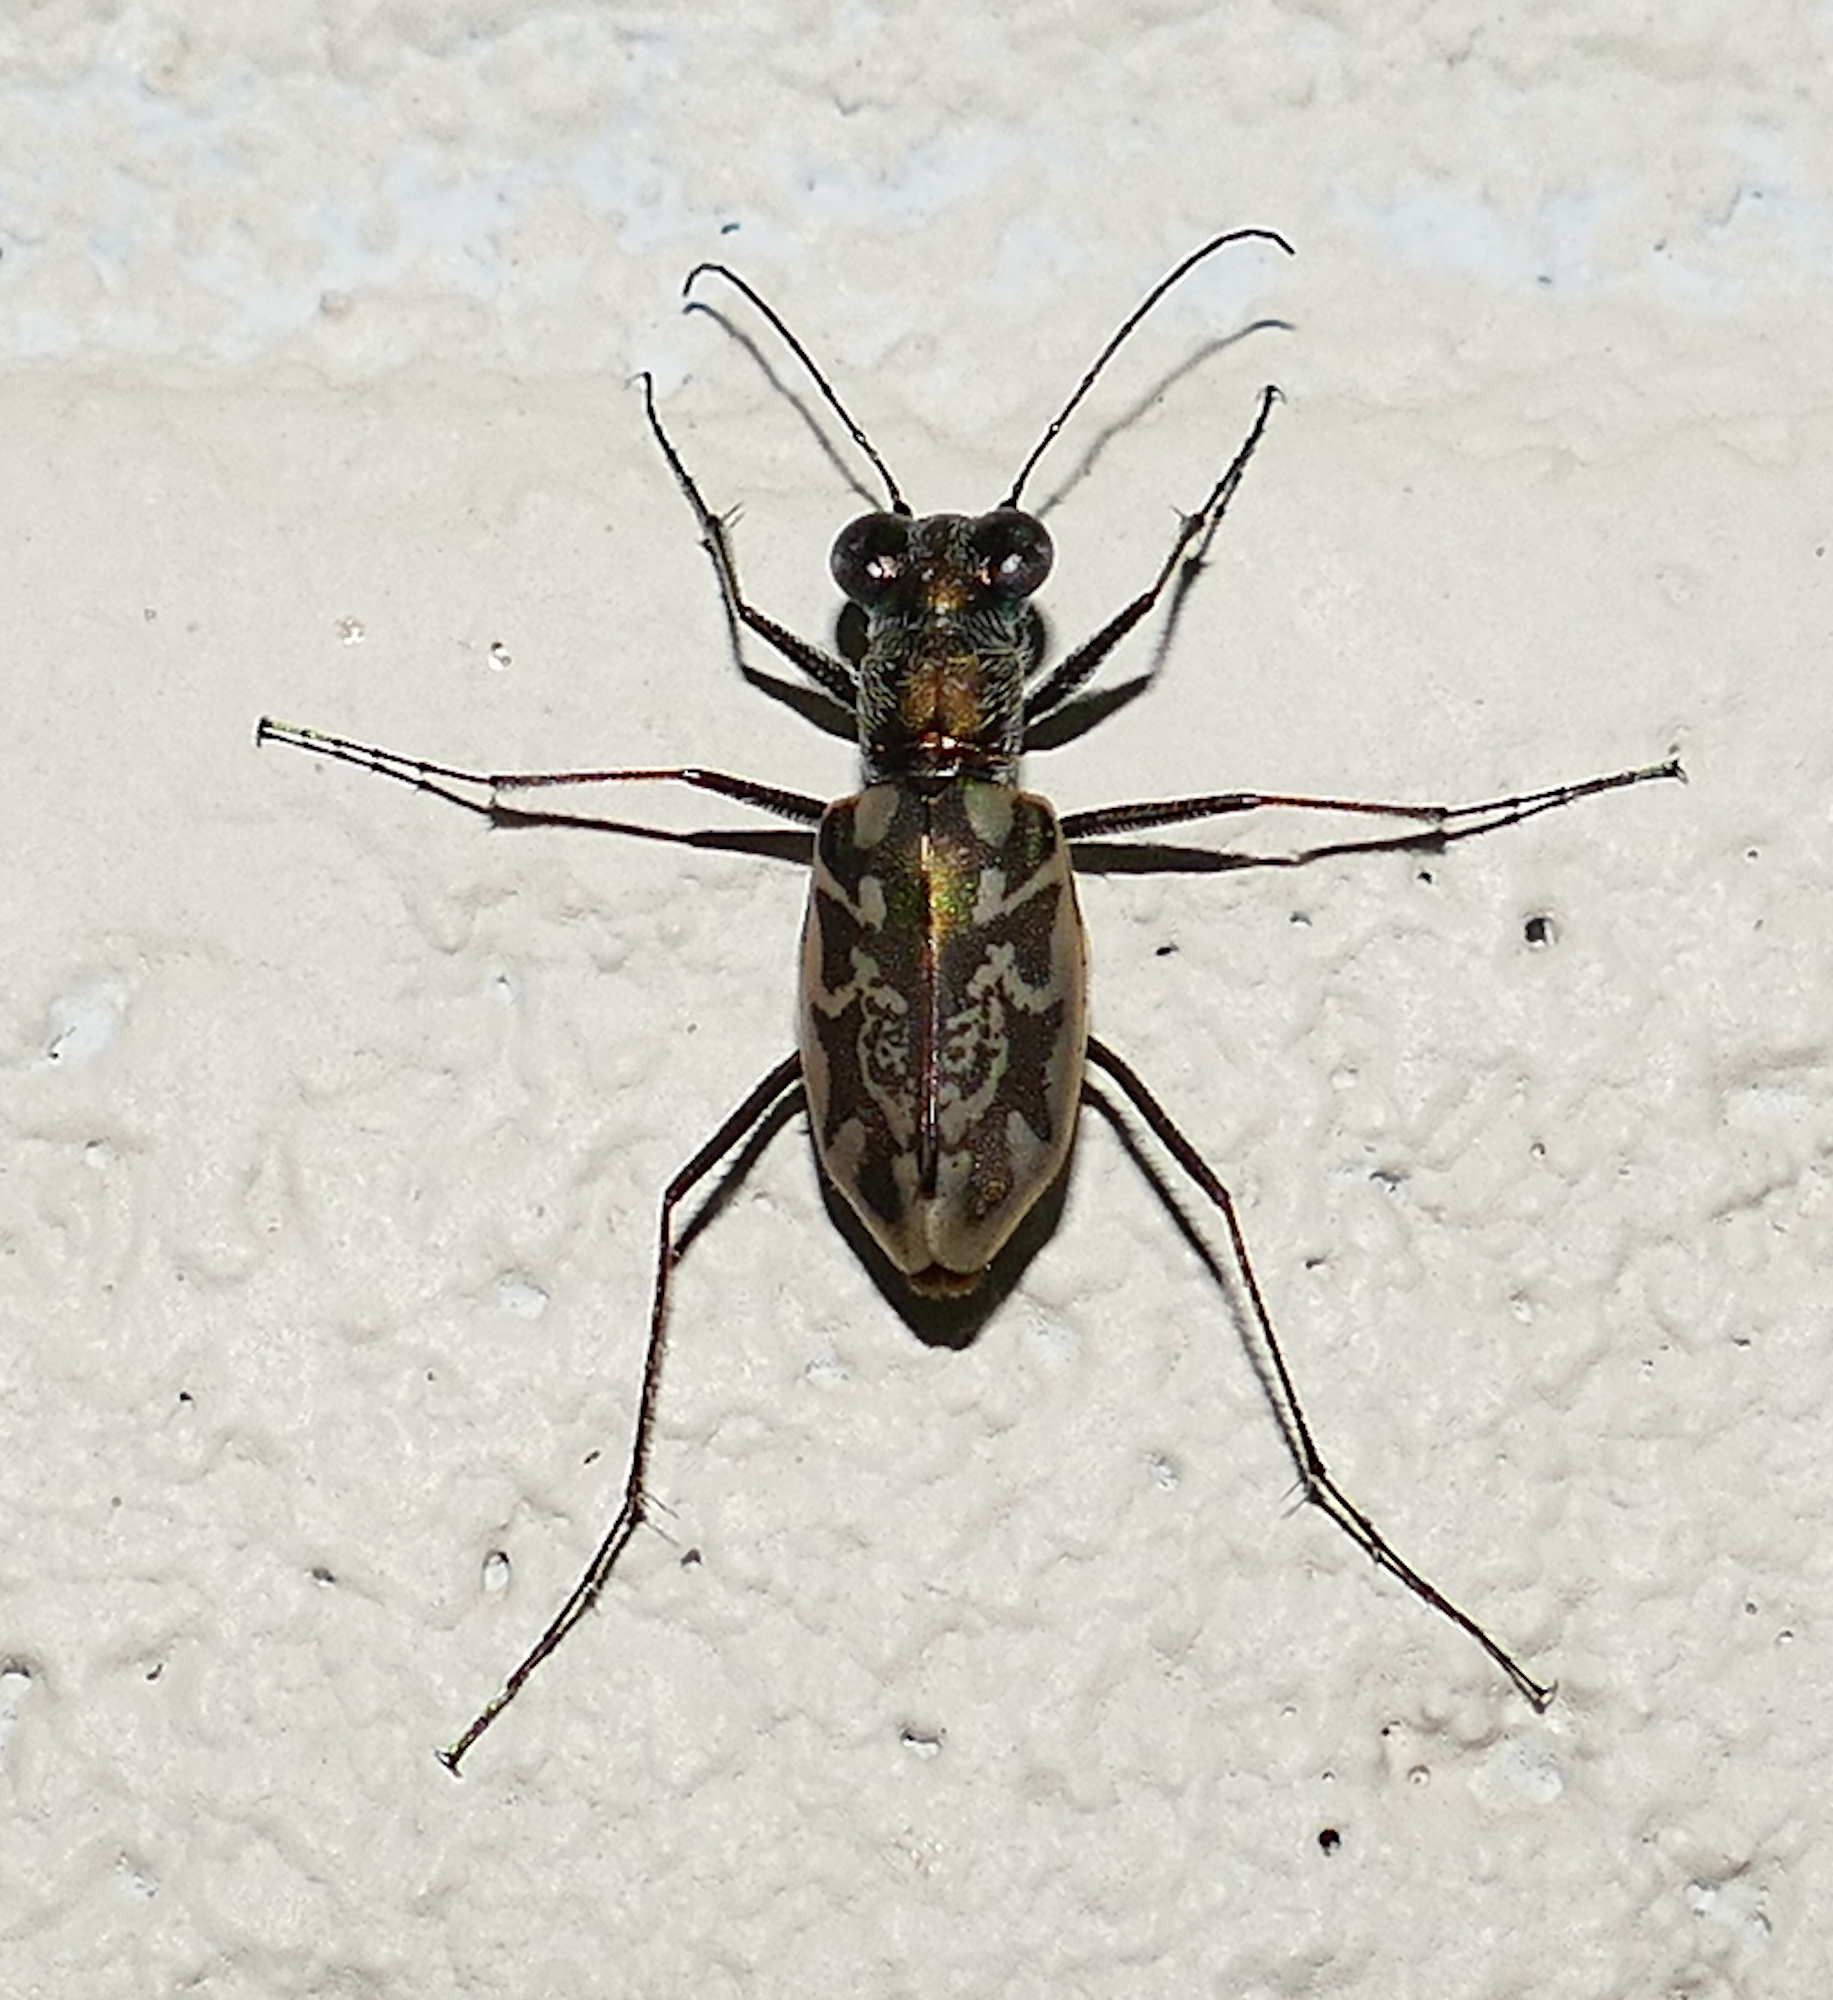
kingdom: Animalia
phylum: Arthropoda
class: Insecta
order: Coleoptera
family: Carabidae
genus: Ellipsoptera
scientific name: Ellipsoptera hamata
